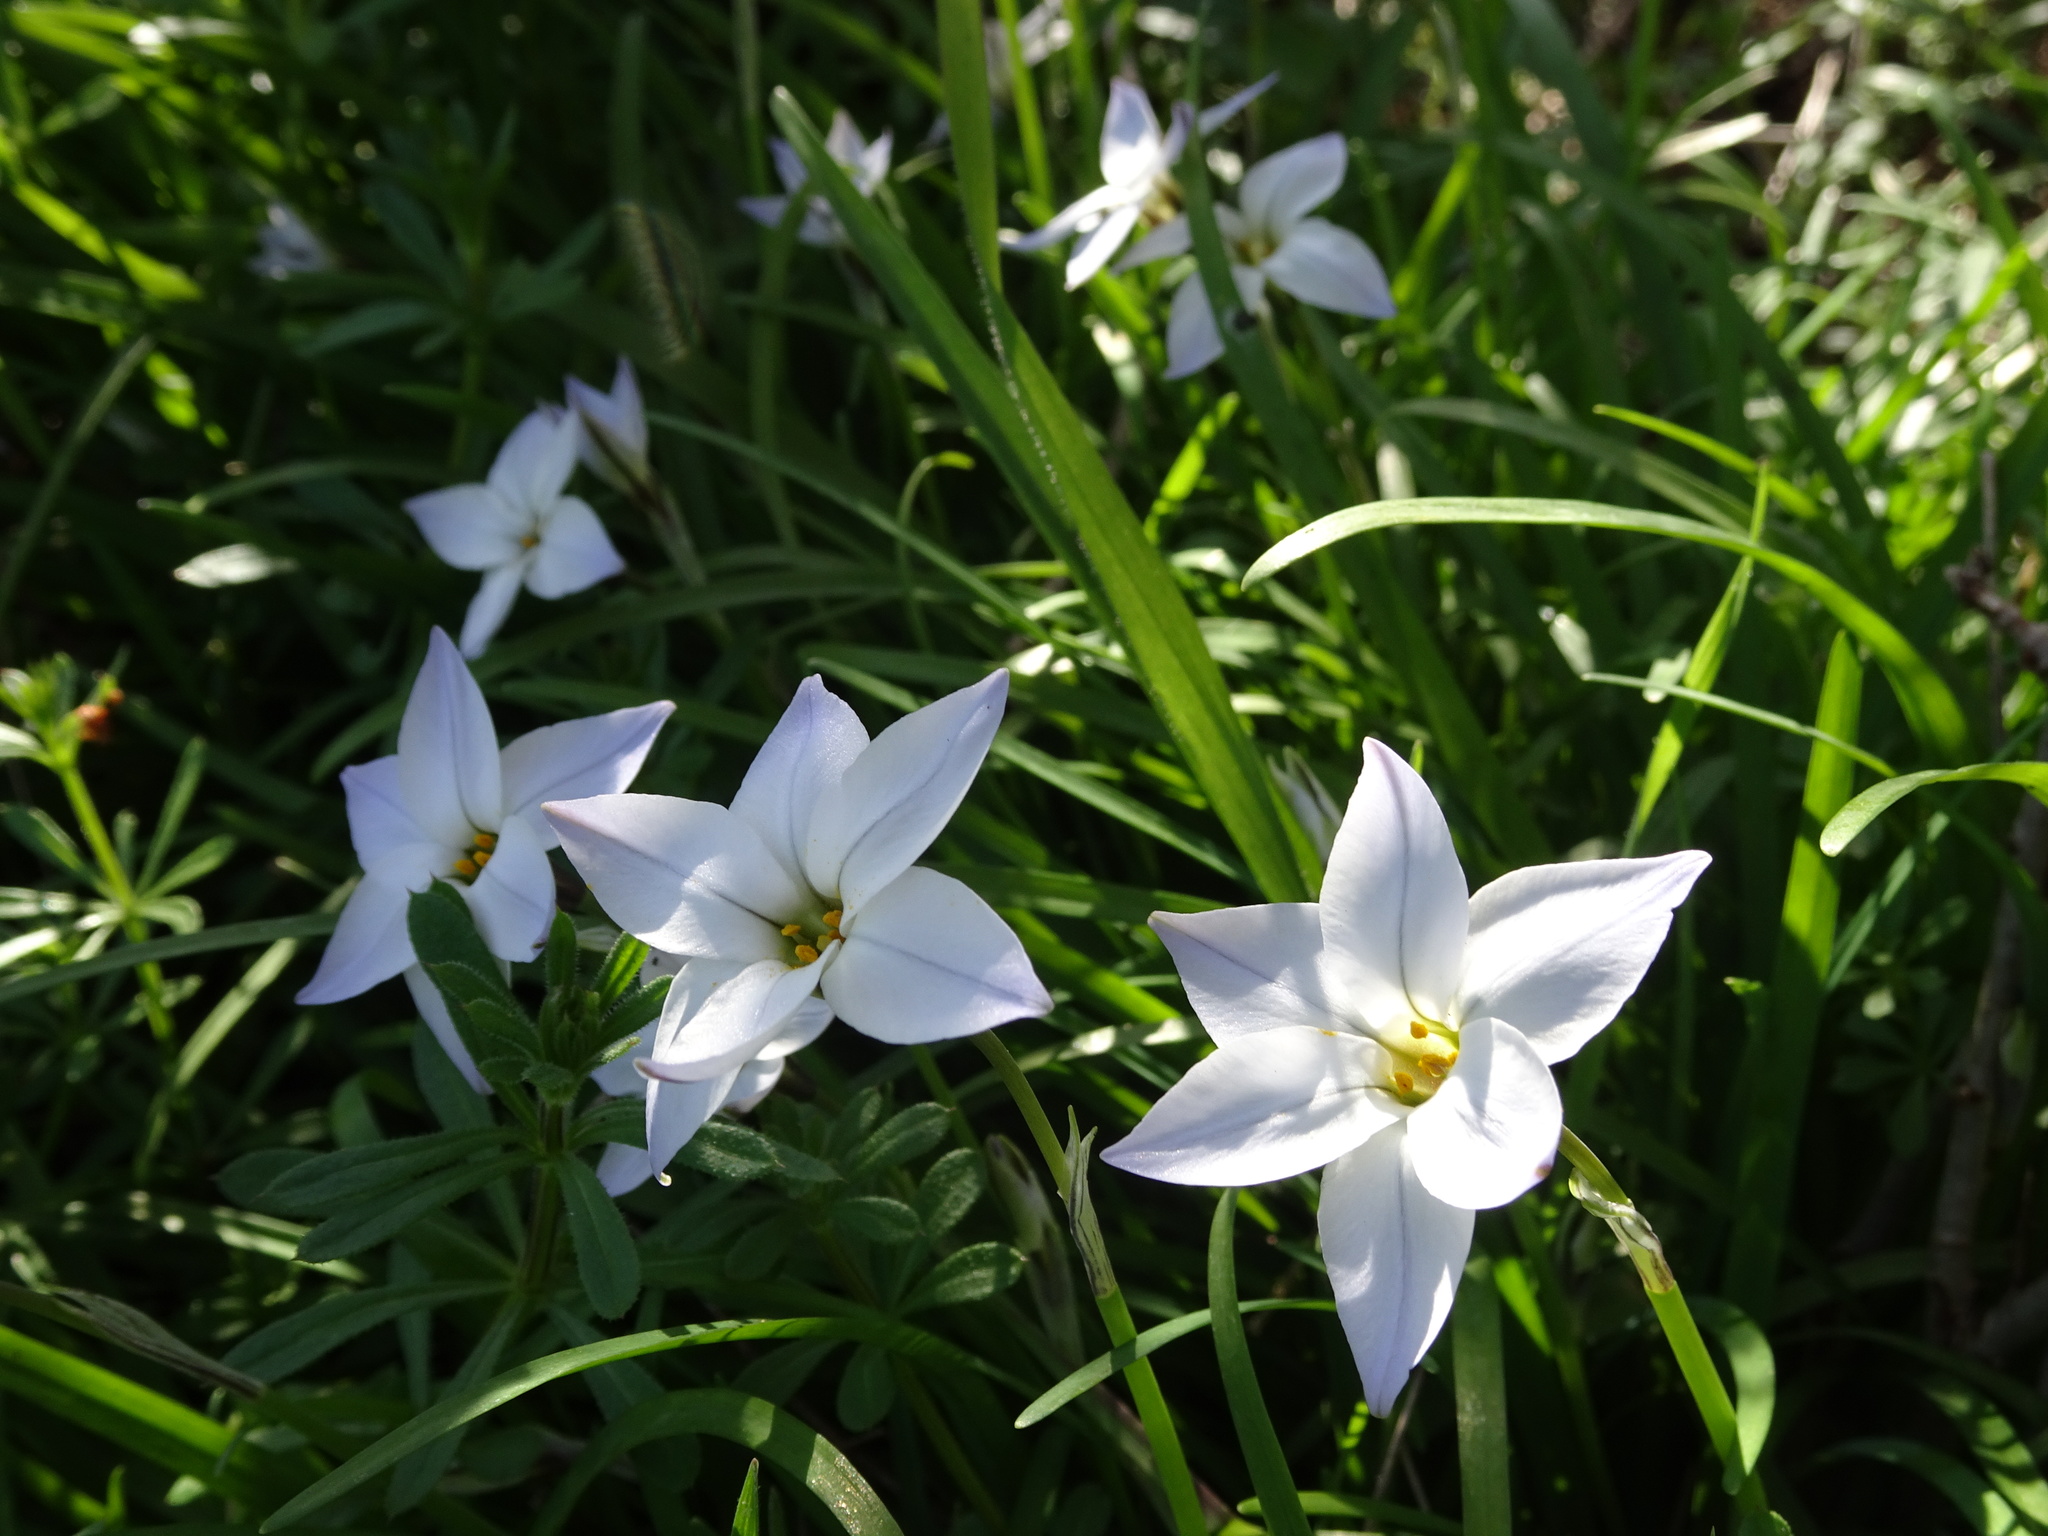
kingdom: Plantae
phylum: Tracheophyta
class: Liliopsida
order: Asparagales
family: Amaryllidaceae
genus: Ipheion
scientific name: Ipheion uniflorum
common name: Spring starflower
